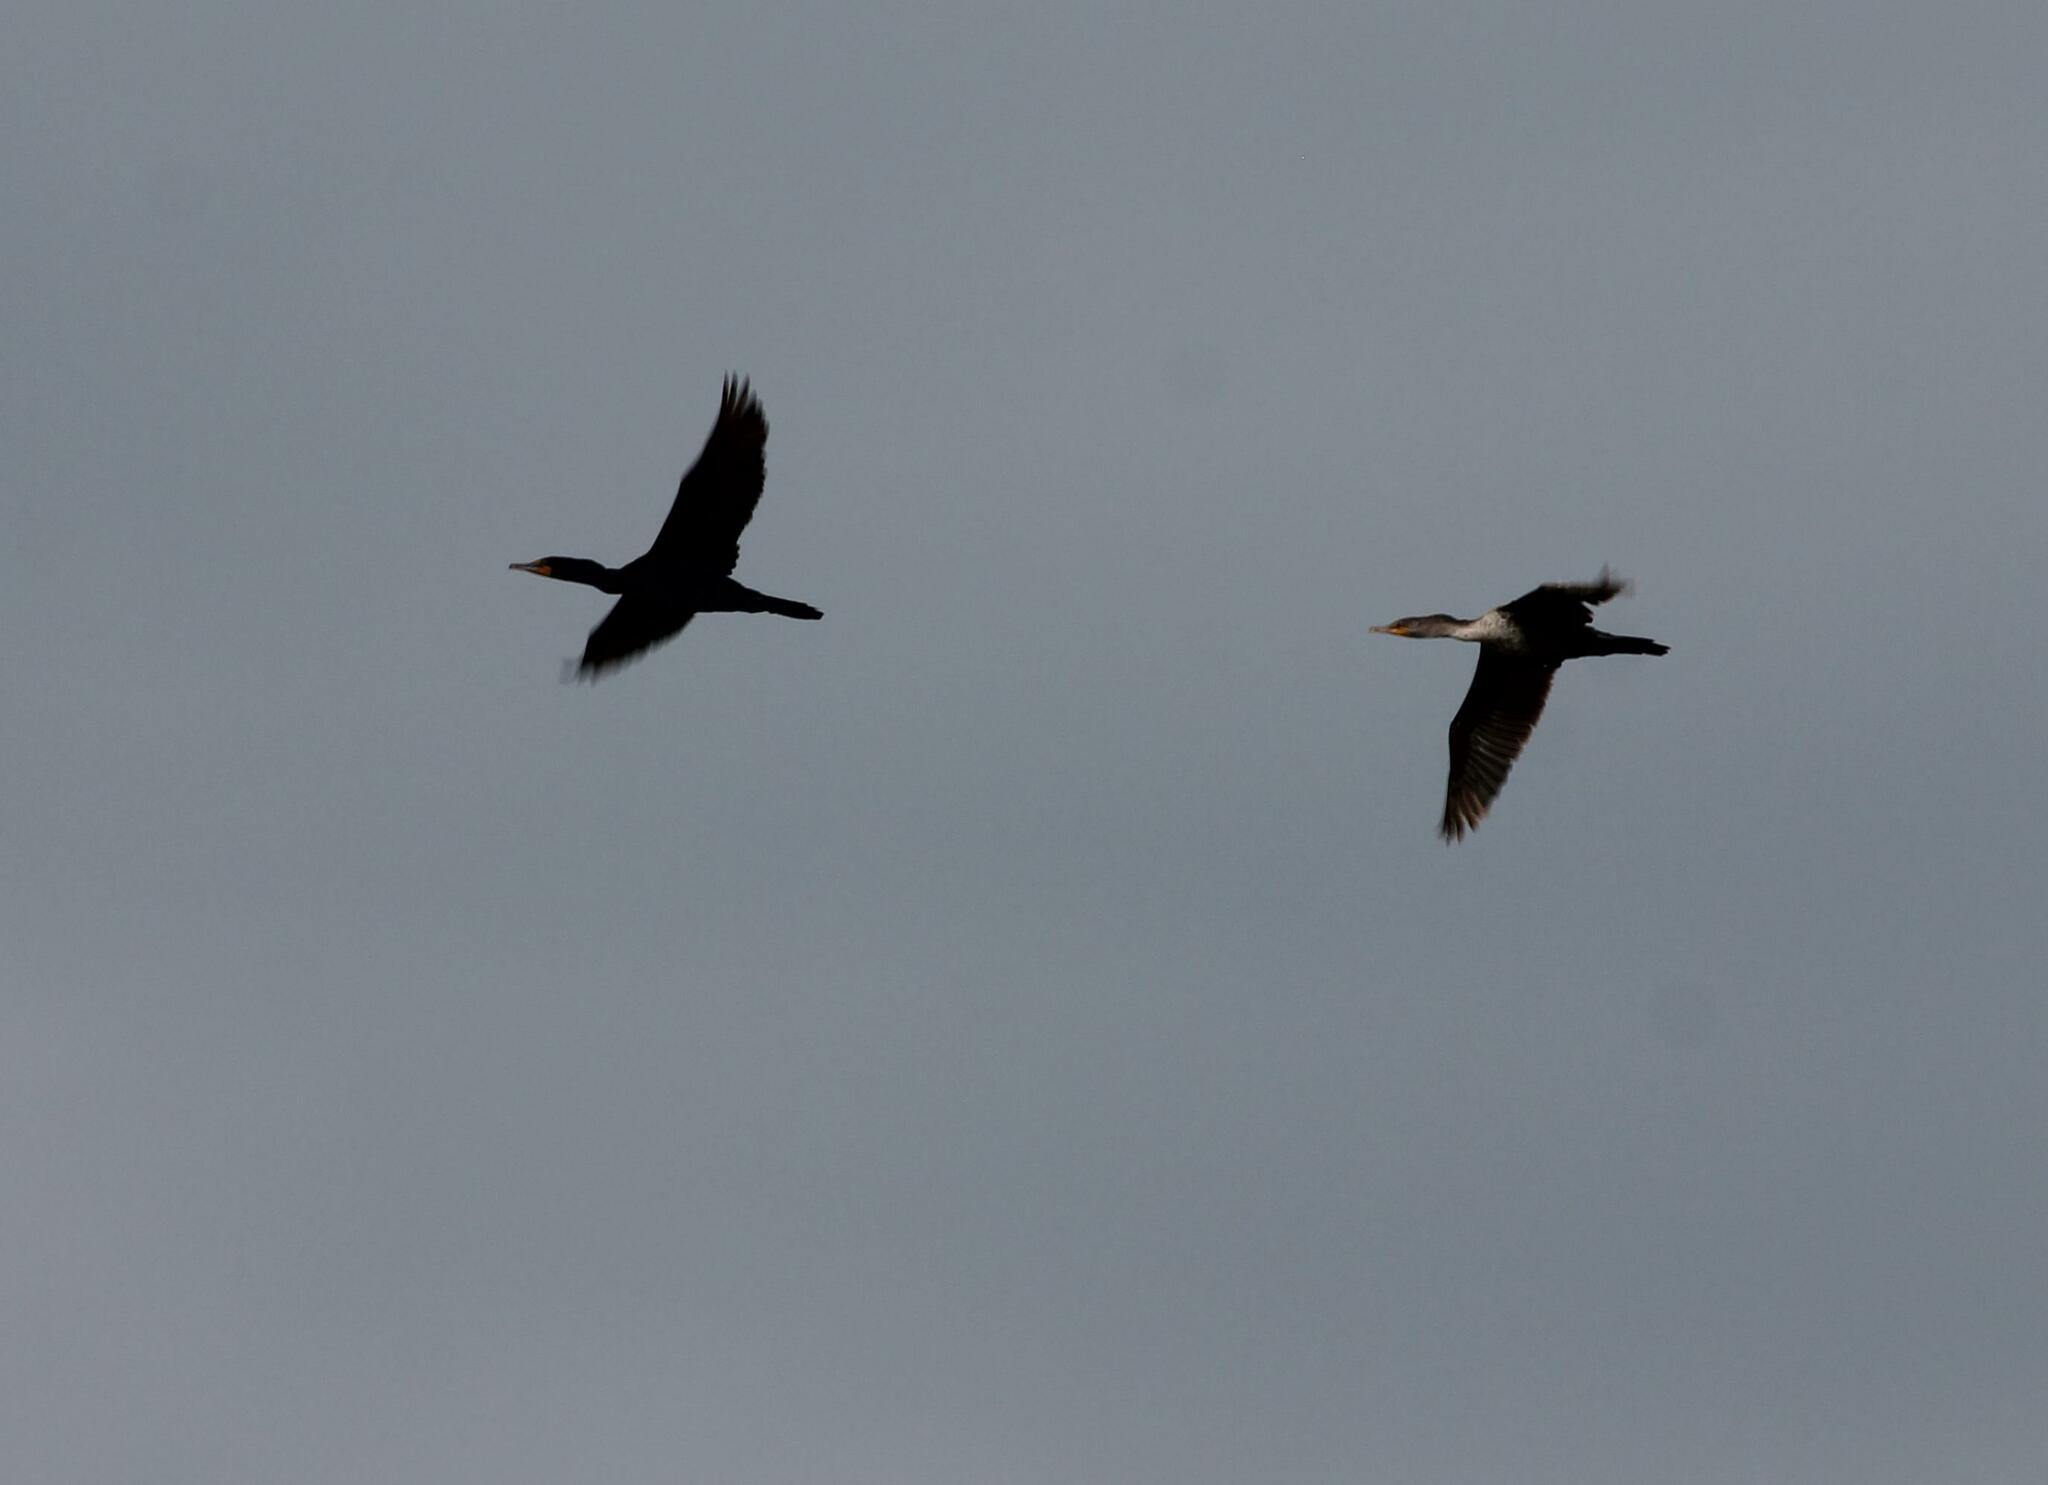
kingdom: Animalia
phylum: Chordata
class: Aves
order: Suliformes
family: Phalacrocoracidae
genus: Phalacrocorax
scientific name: Phalacrocorax auritus
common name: Double-crested cormorant
